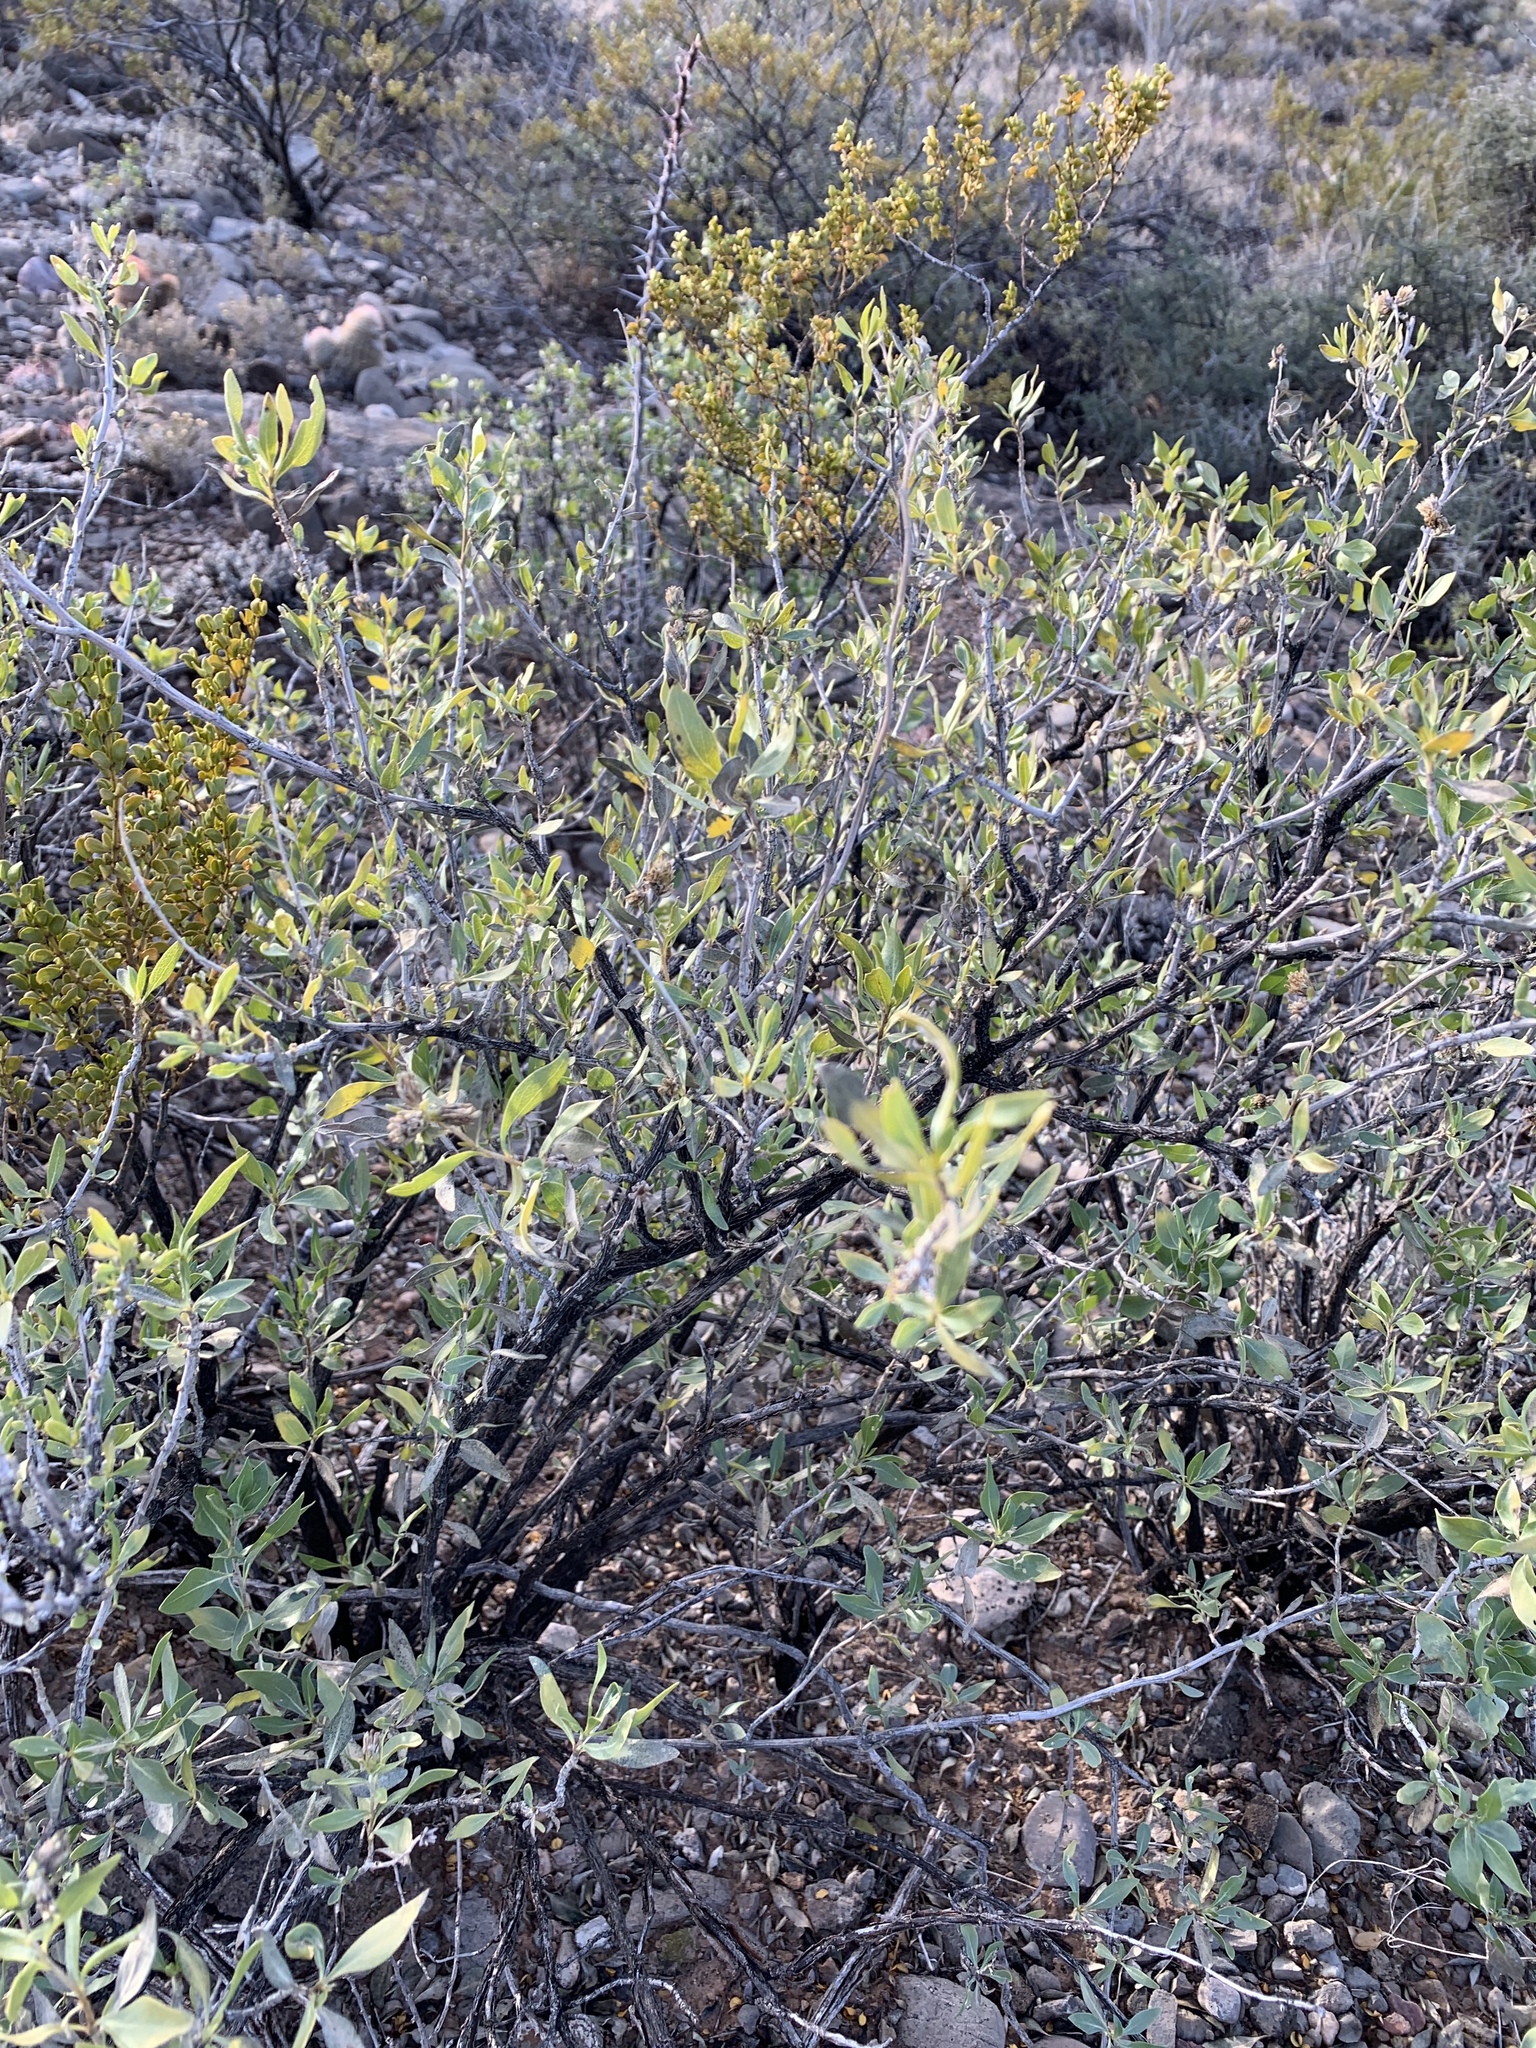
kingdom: Plantae
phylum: Tracheophyta
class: Magnoliopsida
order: Asterales
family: Asteraceae
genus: Flourensia
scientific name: Flourensia cernua
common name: Varnishbush
